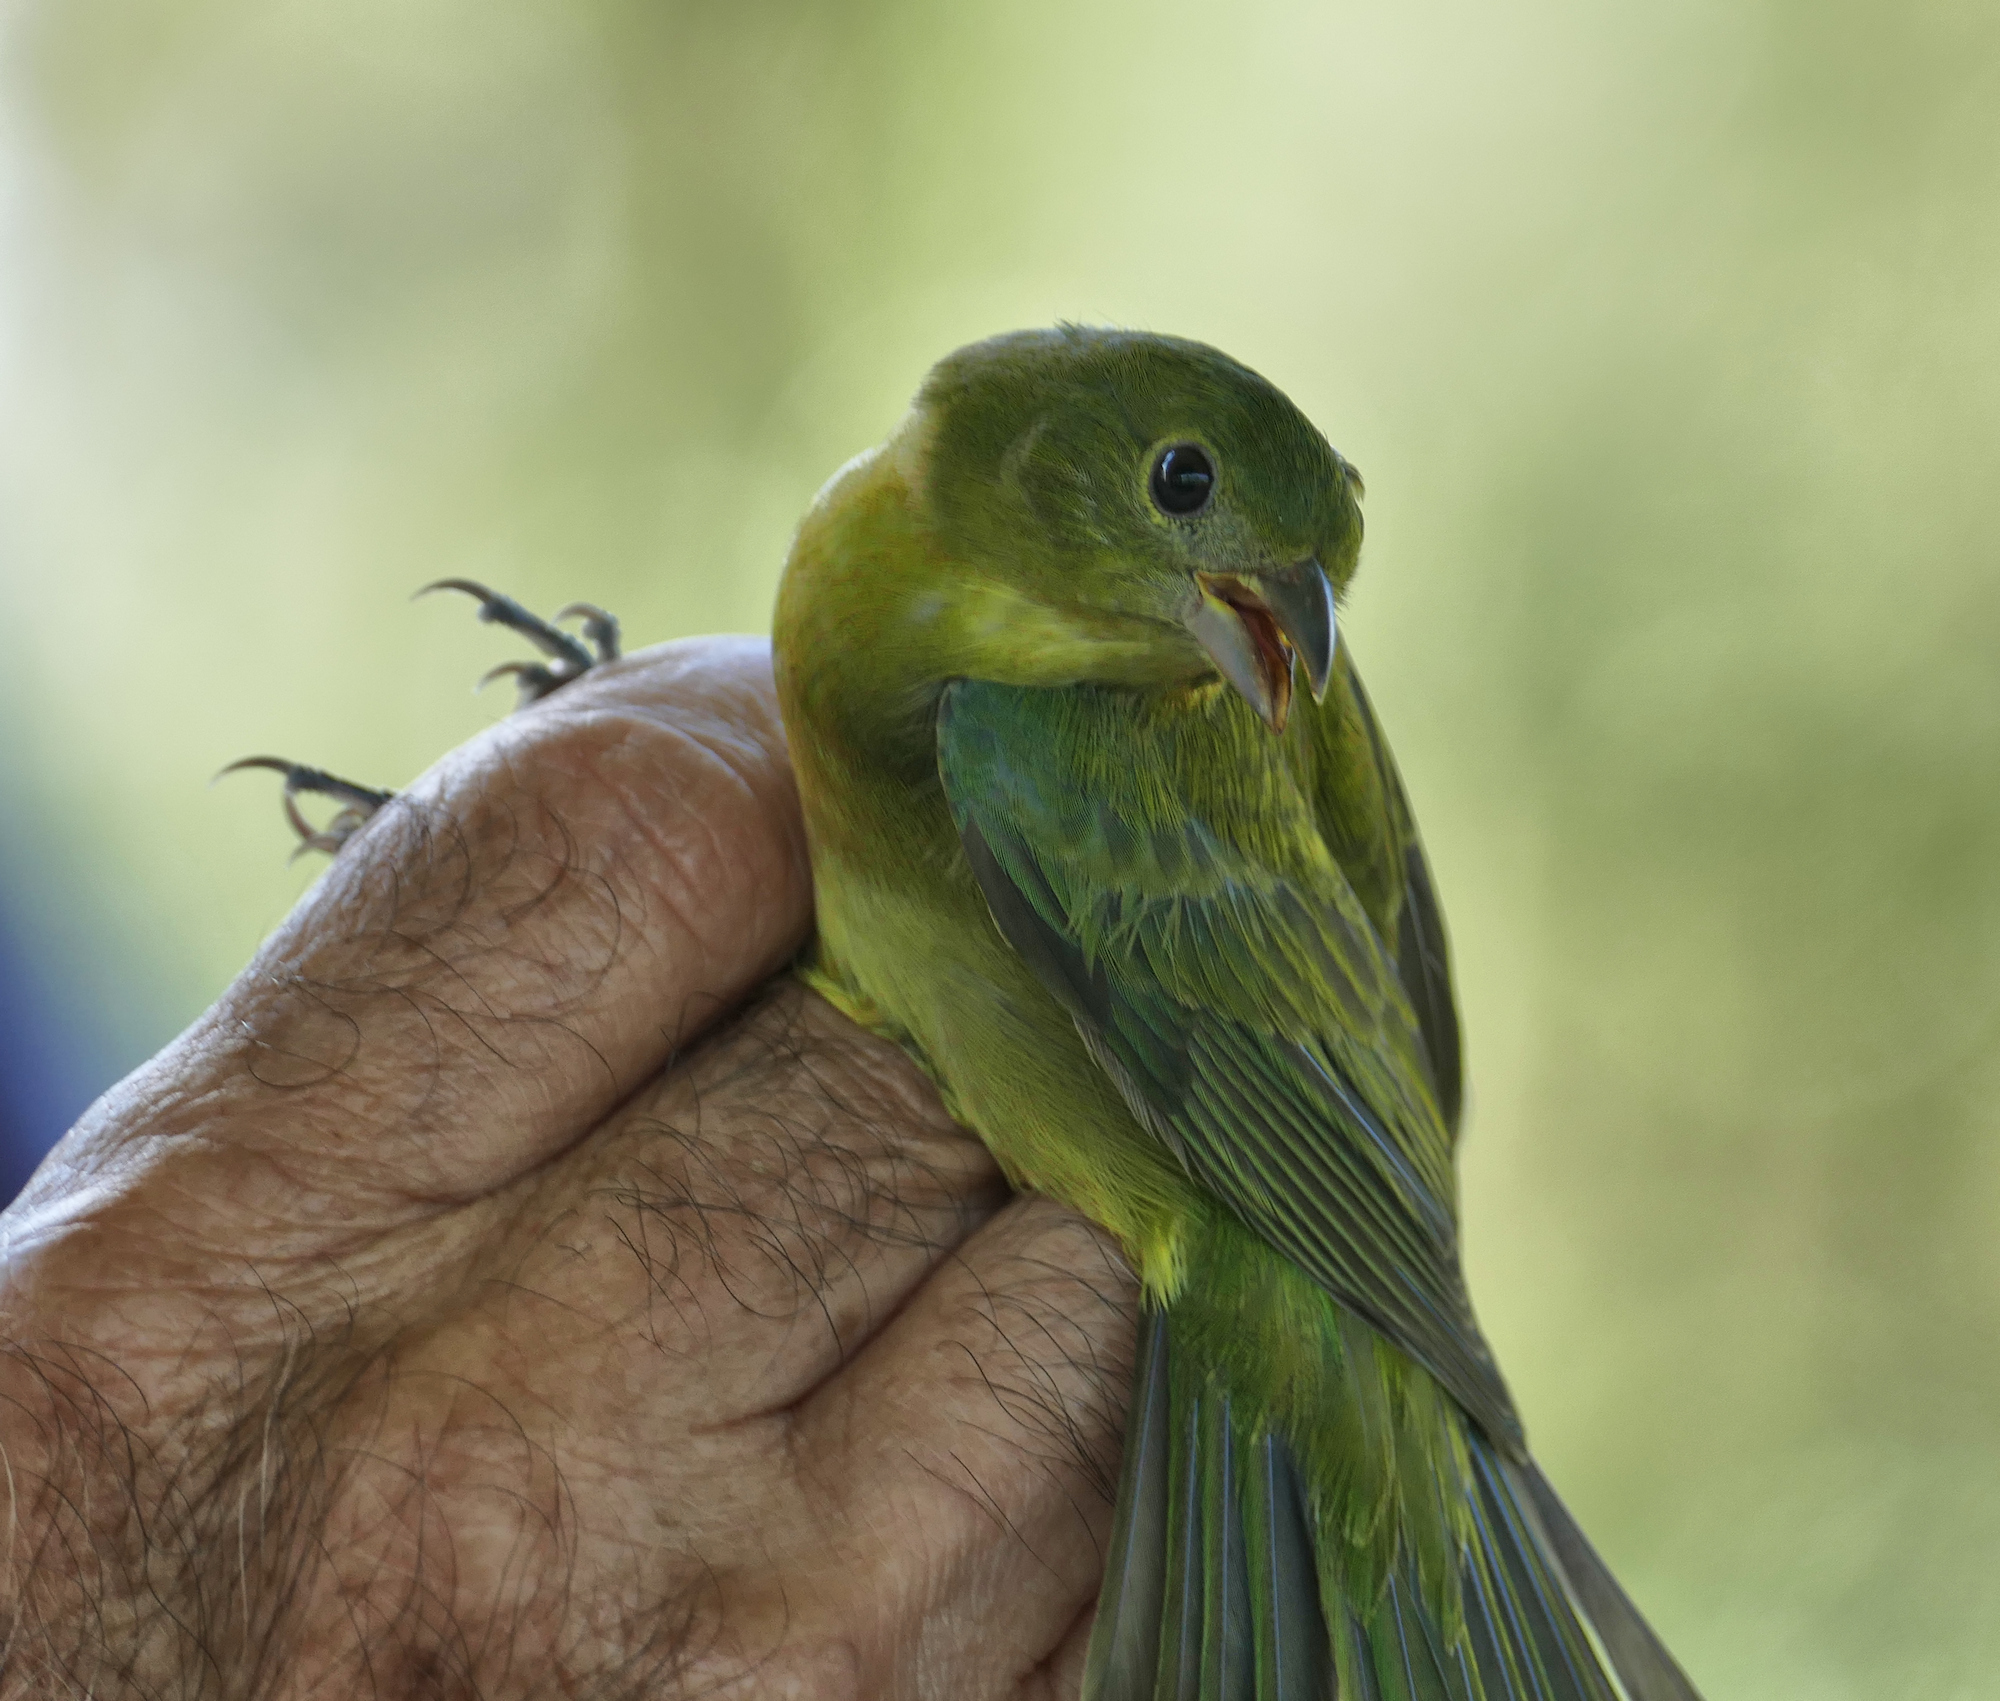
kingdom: Animalia
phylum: Chordata
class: Aves
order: Passeriformes
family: Cardinalidae
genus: Passerina
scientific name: Passerina ciris
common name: Painted bunting
